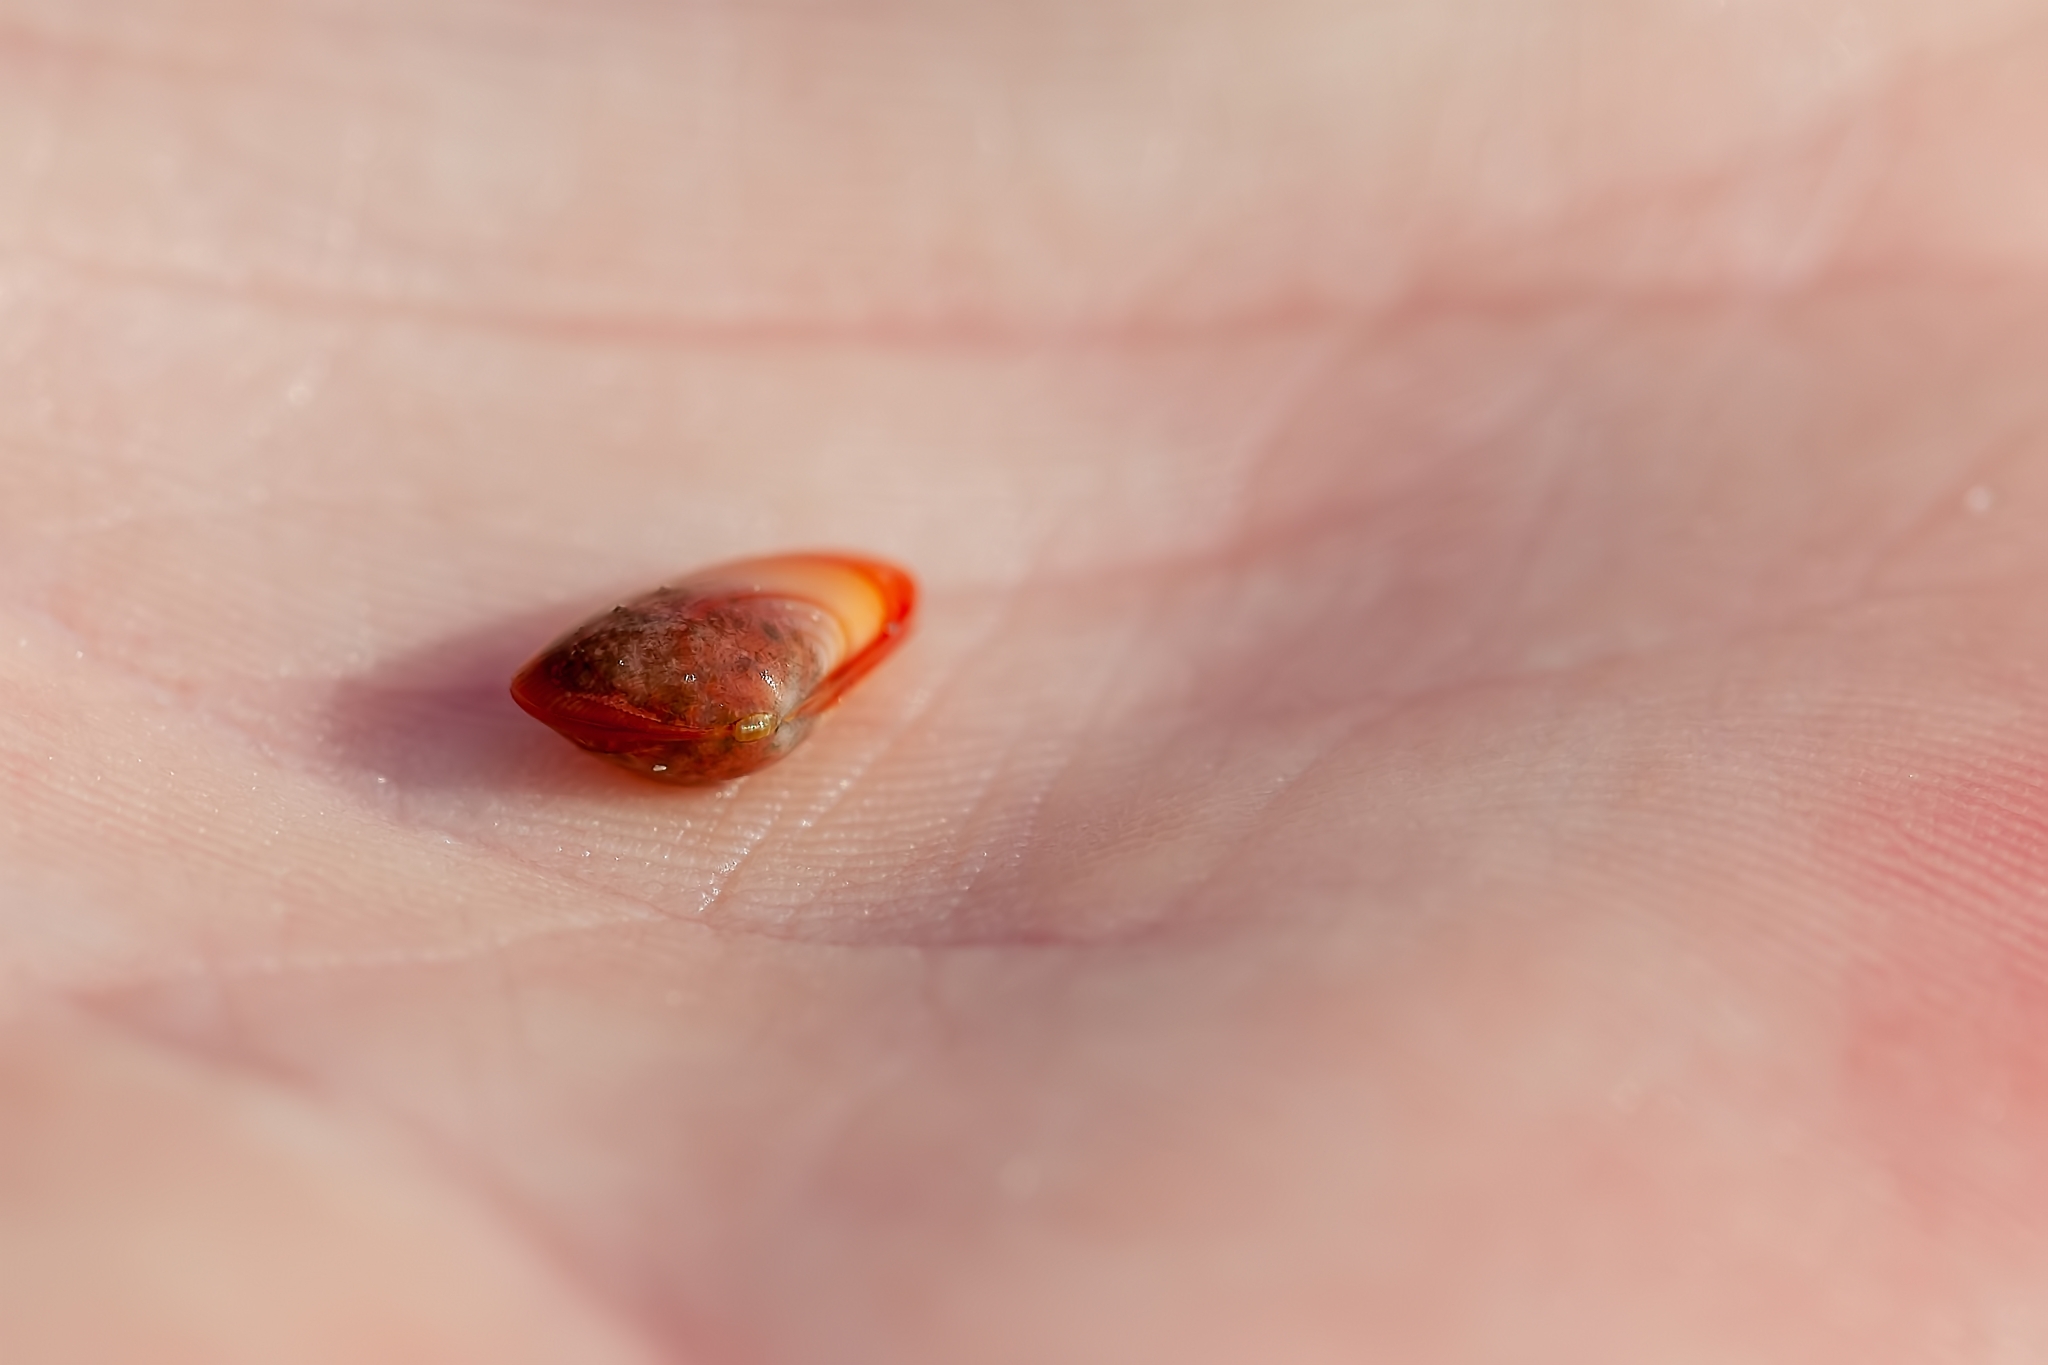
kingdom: Animalia
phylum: Mollusca
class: Bivalvia
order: Cardiida
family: Donacidae
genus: Donax
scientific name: Donax variabilis
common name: Butterfly shell
